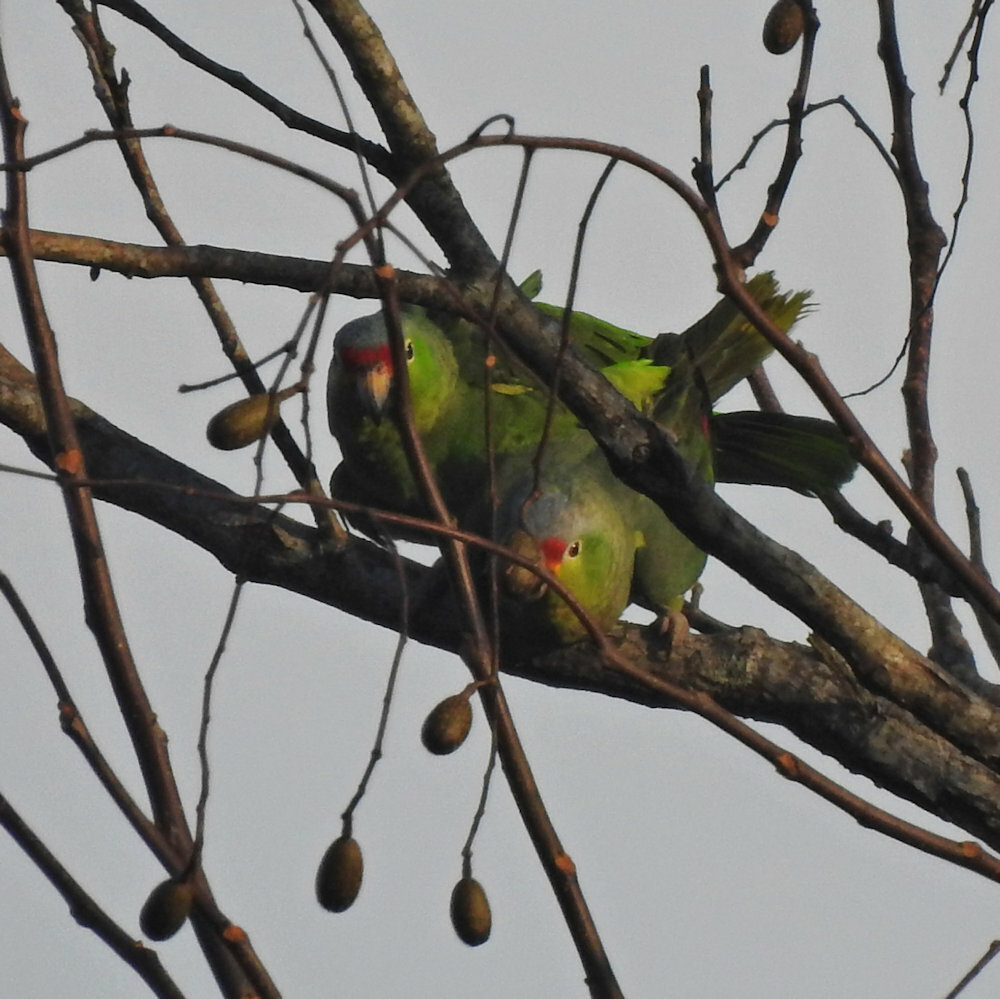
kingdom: Animalia
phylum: Chordata
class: Aves
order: Psittaciformes
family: Psittacidae
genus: Amazona
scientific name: Amazona autumnalis
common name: Red-lored amazon
